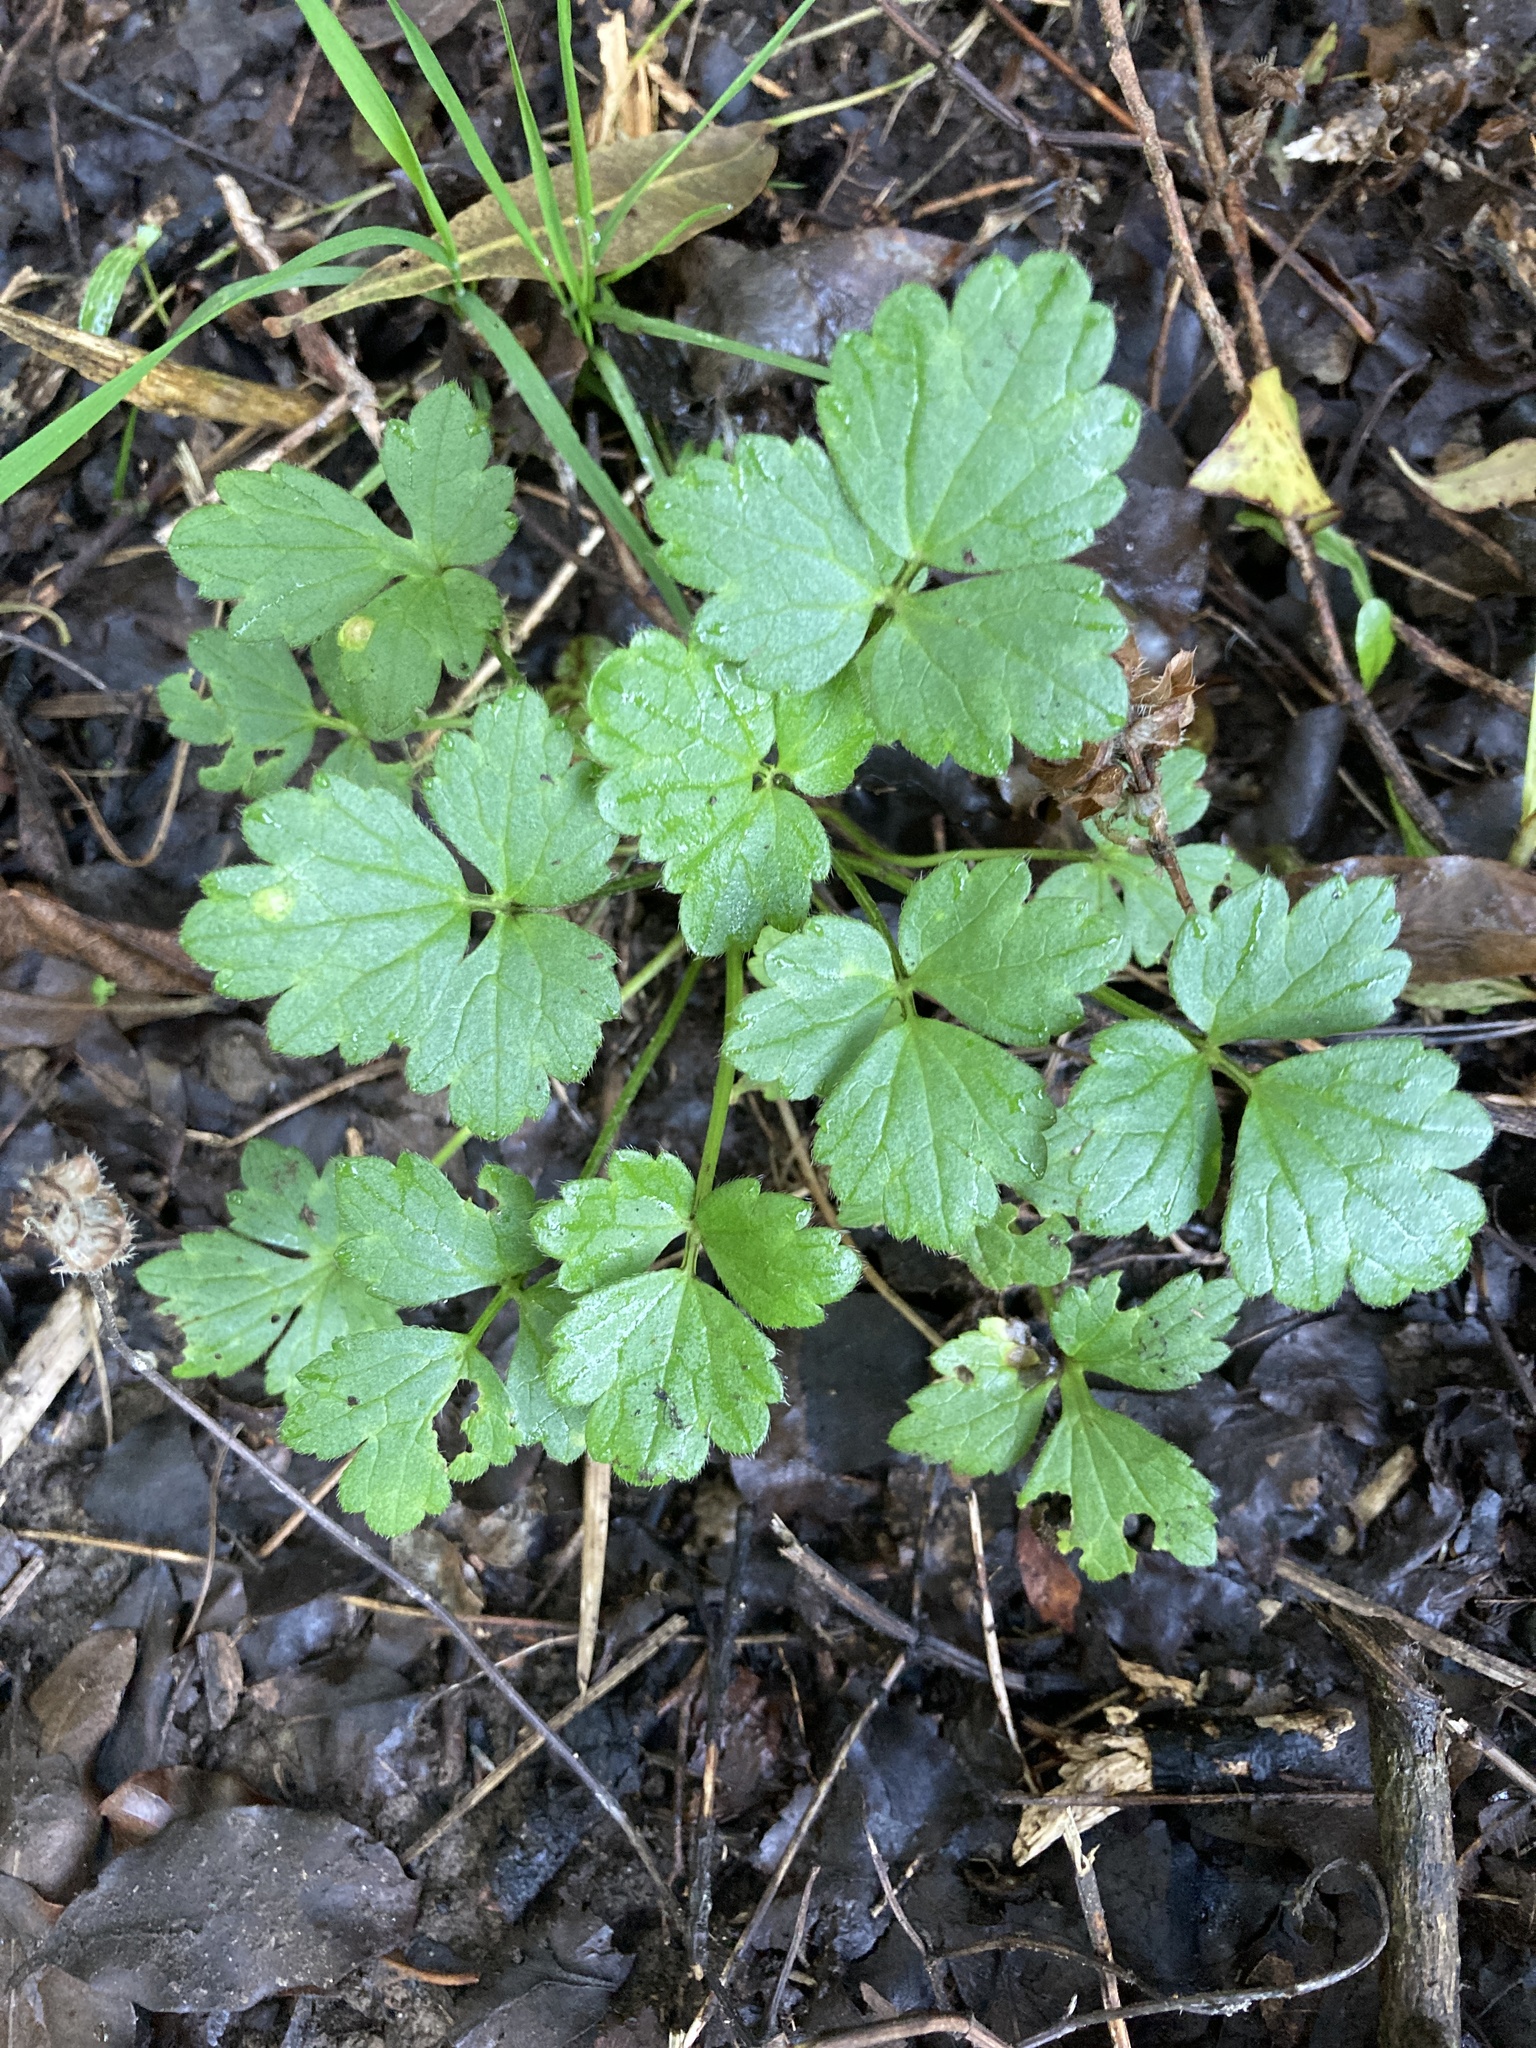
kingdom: Plantae
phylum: Tracheophyta
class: Magnoliopsida
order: Ranunculales
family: Ranunculaceae
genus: Ranunculus
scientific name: Ranunculus repens
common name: Creeping buttercup
